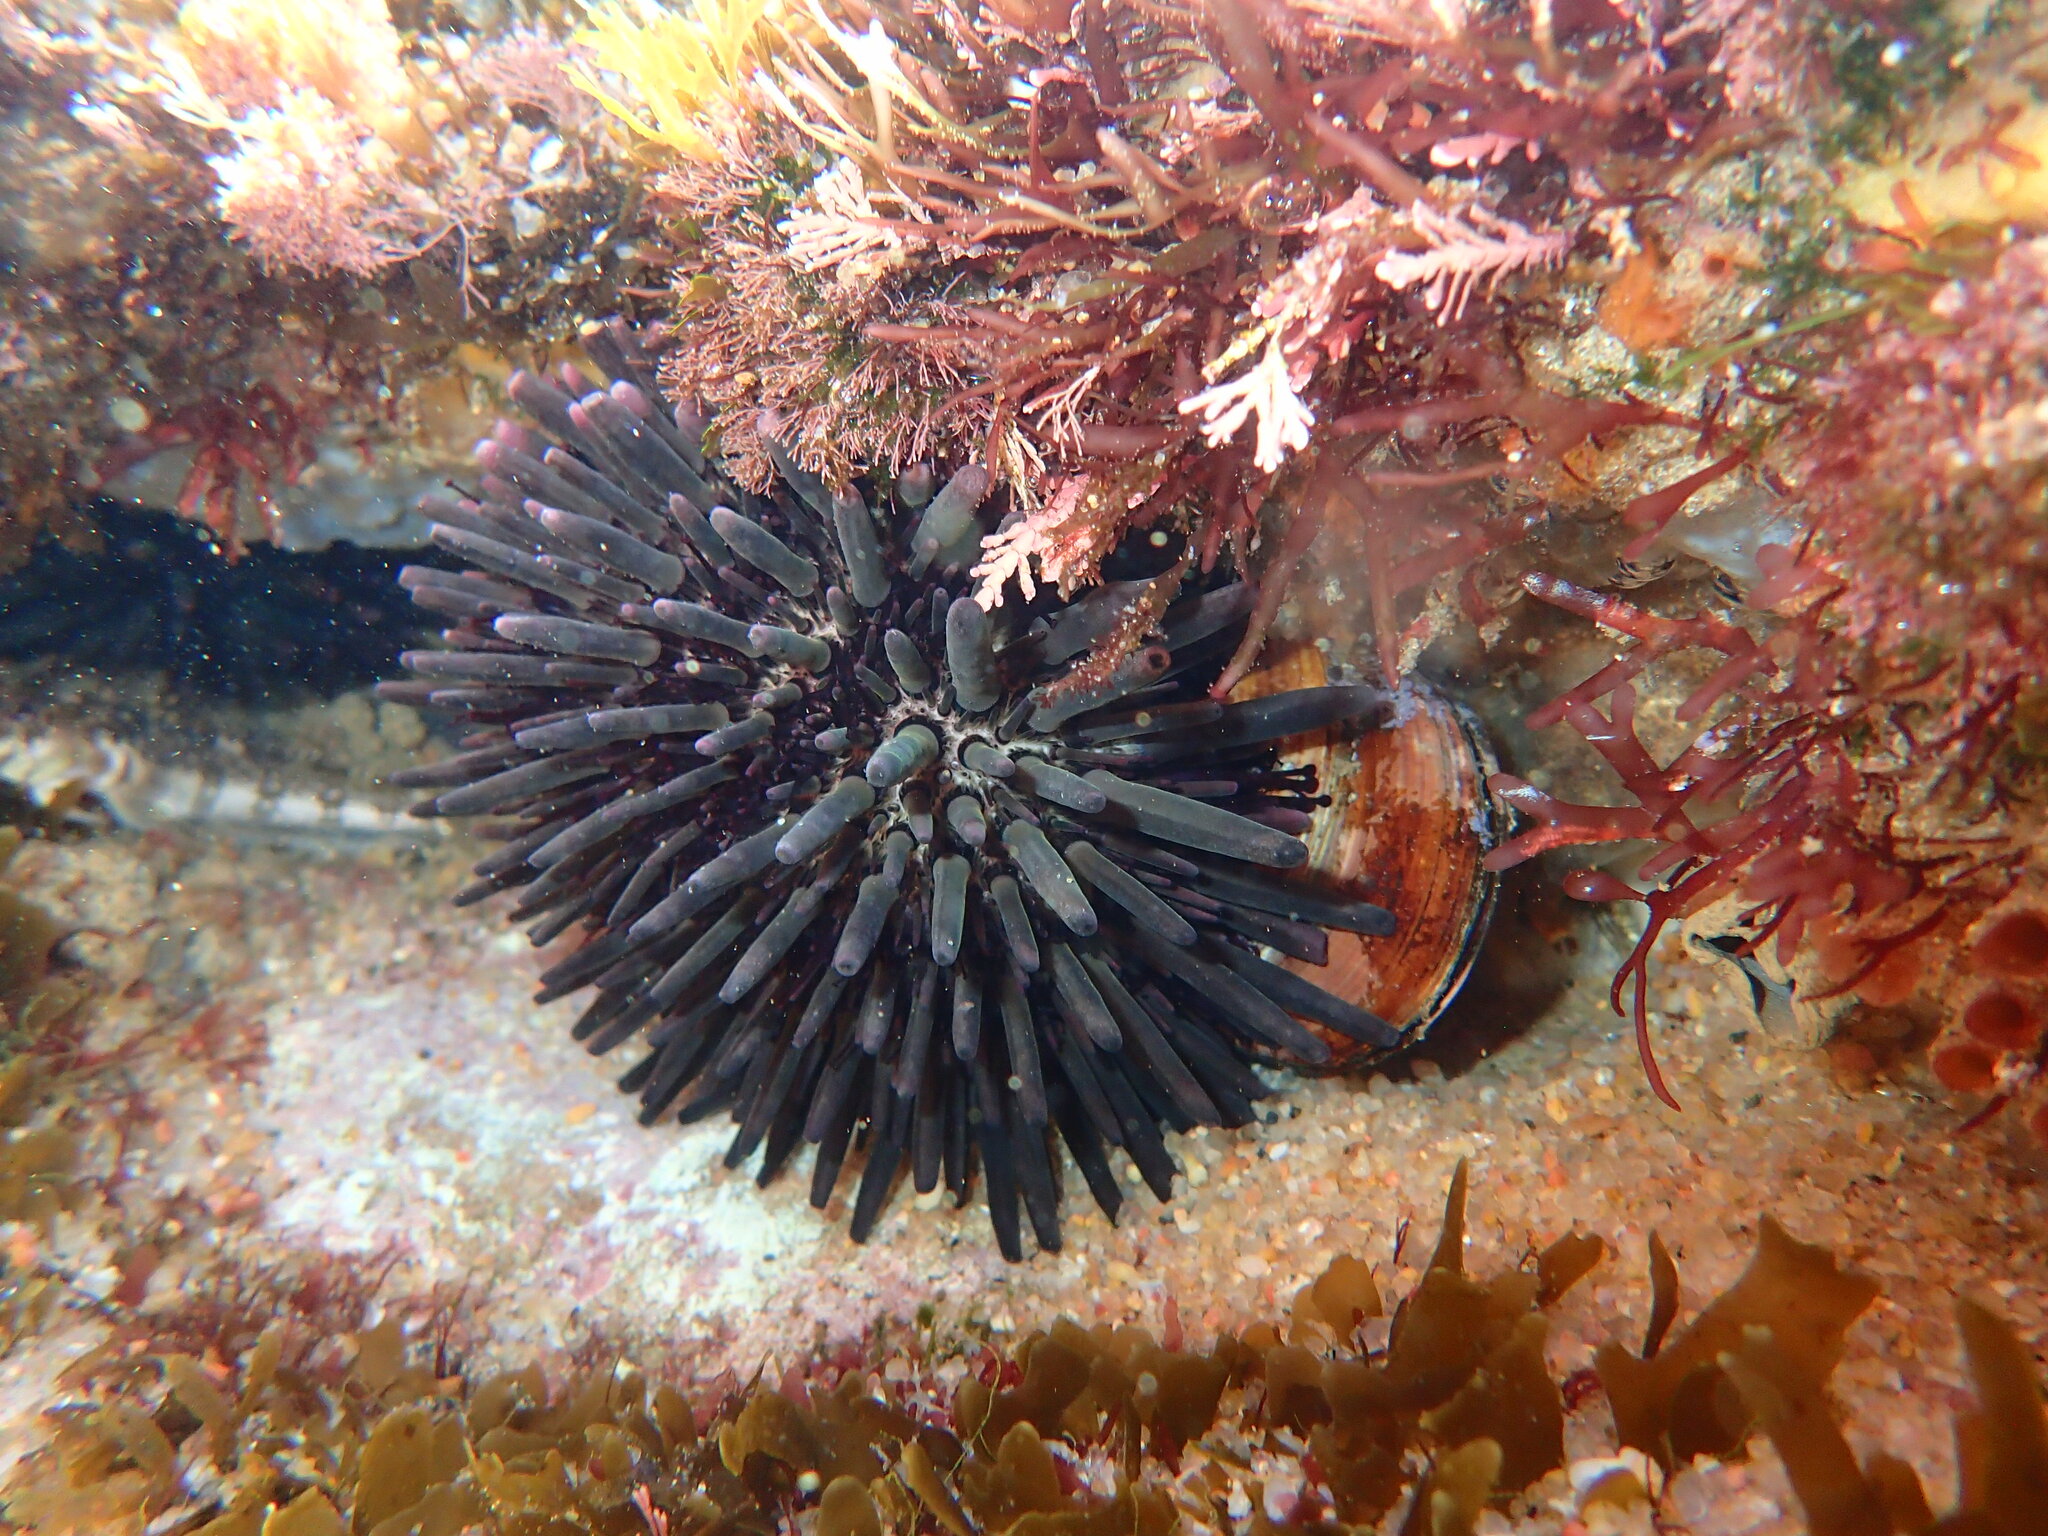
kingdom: Animalia
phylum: Echinodermata
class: Echinoidea
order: Stomopneustoida
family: Stomopneustidae
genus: Stomopneustes
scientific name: Stomopneustes variolaris
